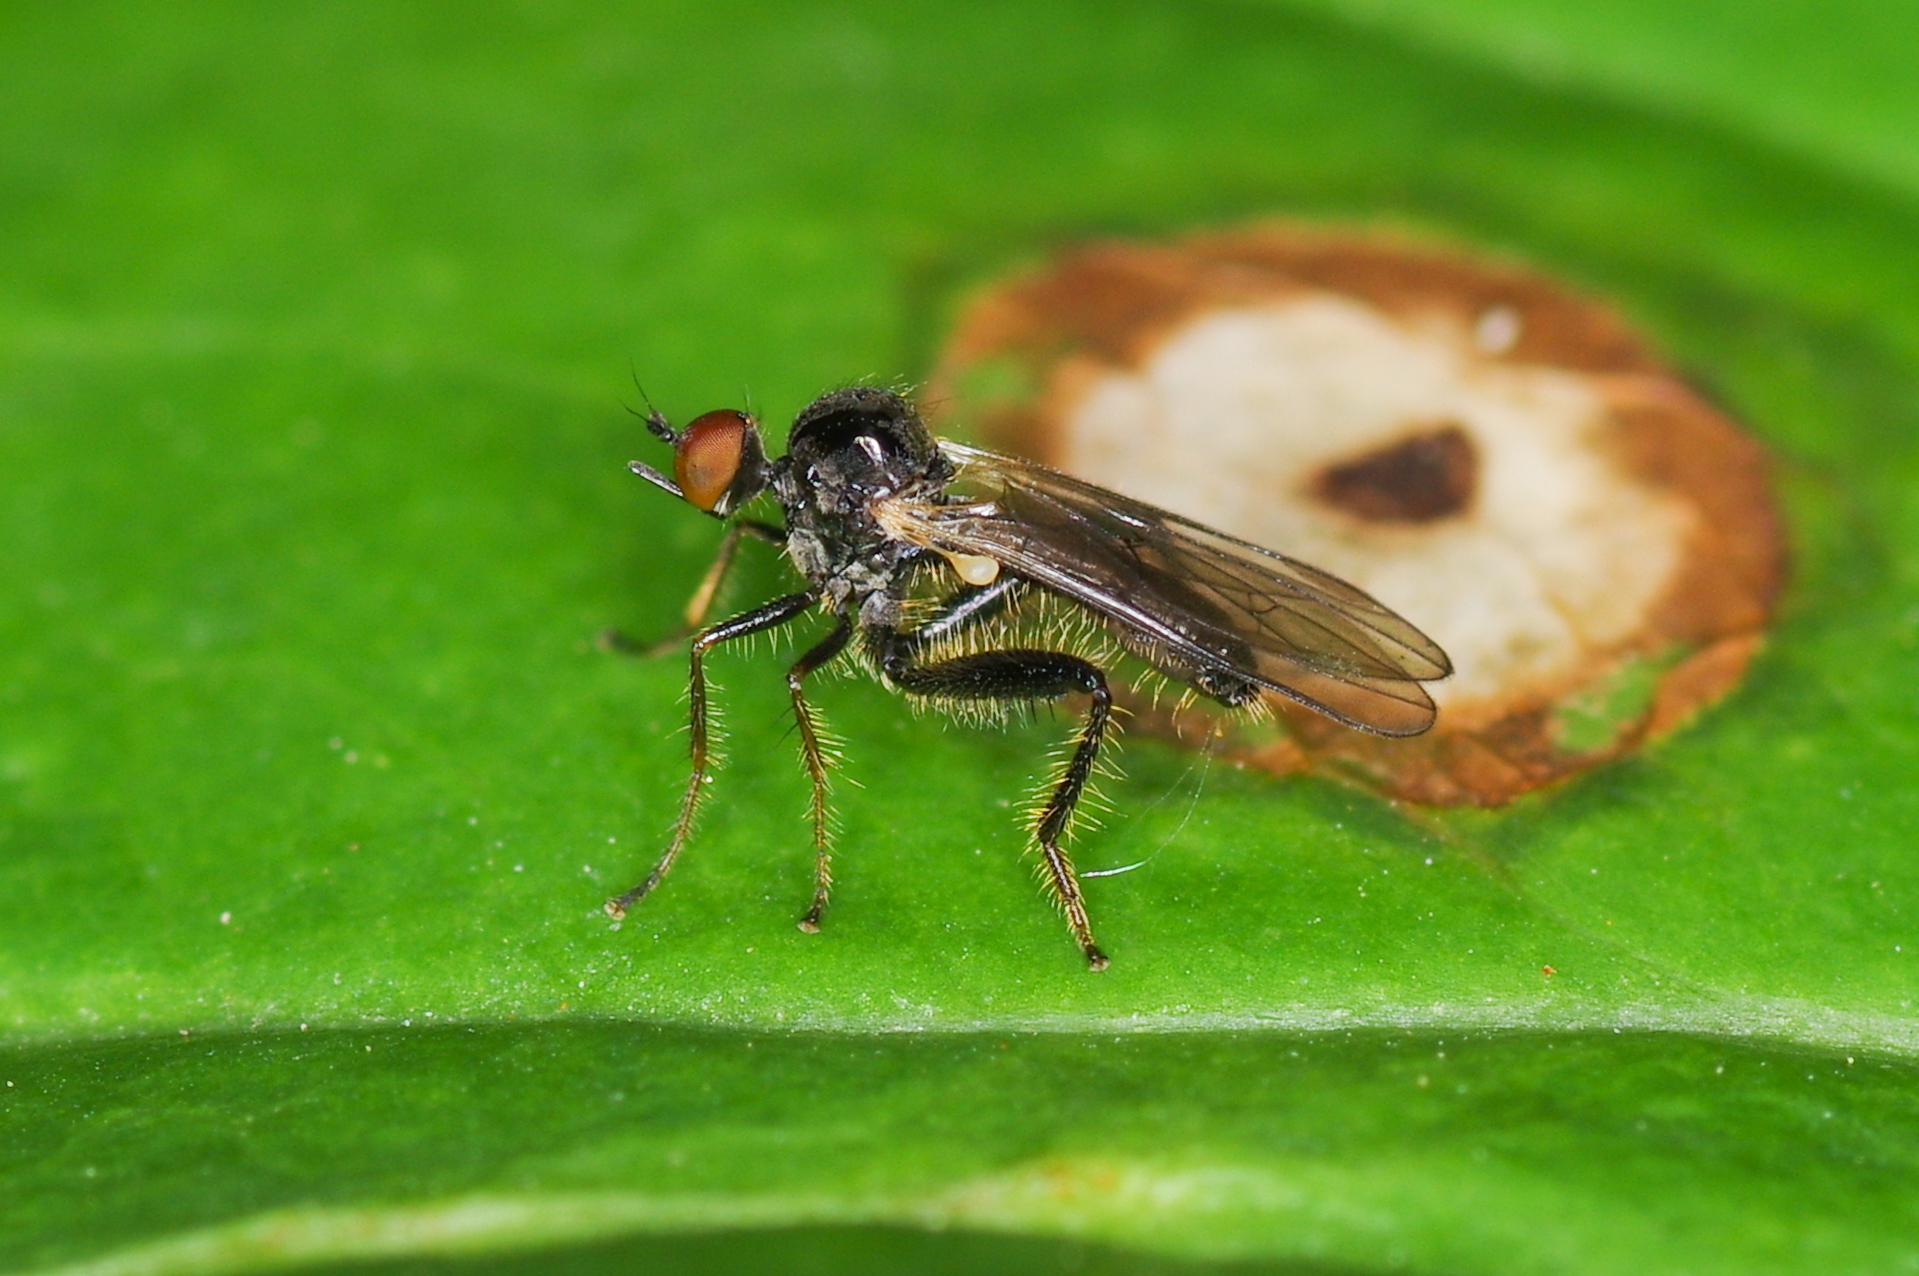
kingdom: Animalia
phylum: Arthropoda
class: Insecta
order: Diptera
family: Hybotidae
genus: Hybos
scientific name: Hybos reversus
